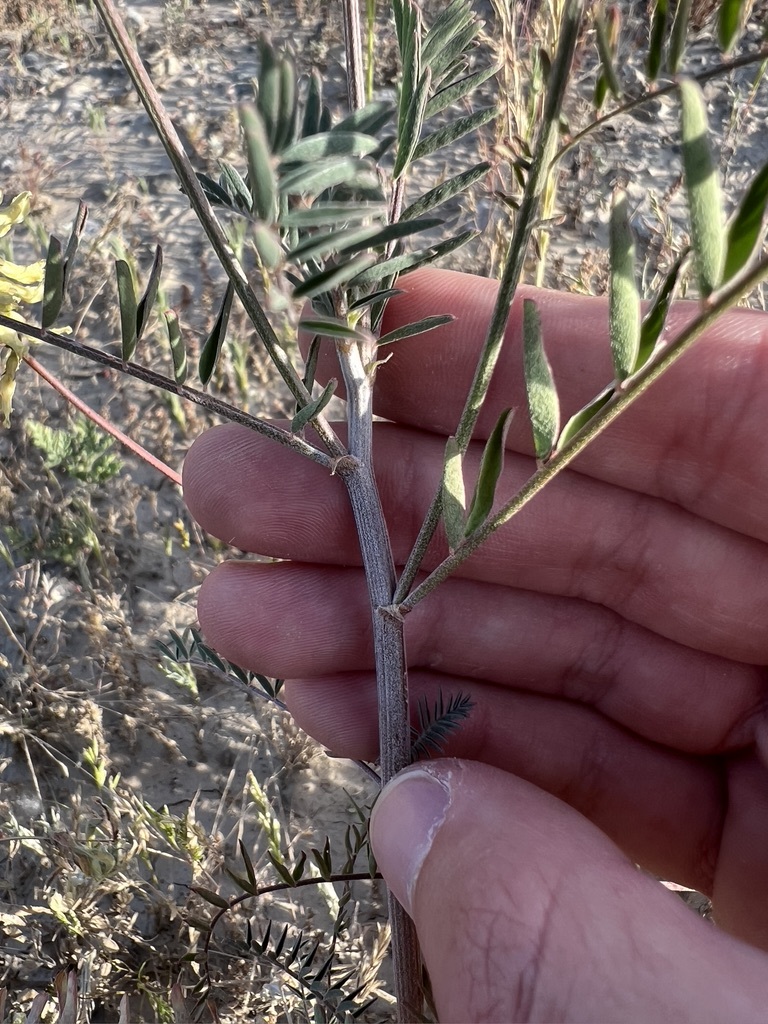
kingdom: Plantae
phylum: Tracheophyta
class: Magnoliopsida
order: Fabales
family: Fabaceae
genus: Lupinus
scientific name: Lupinus succulentus
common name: Arroyo lupine
